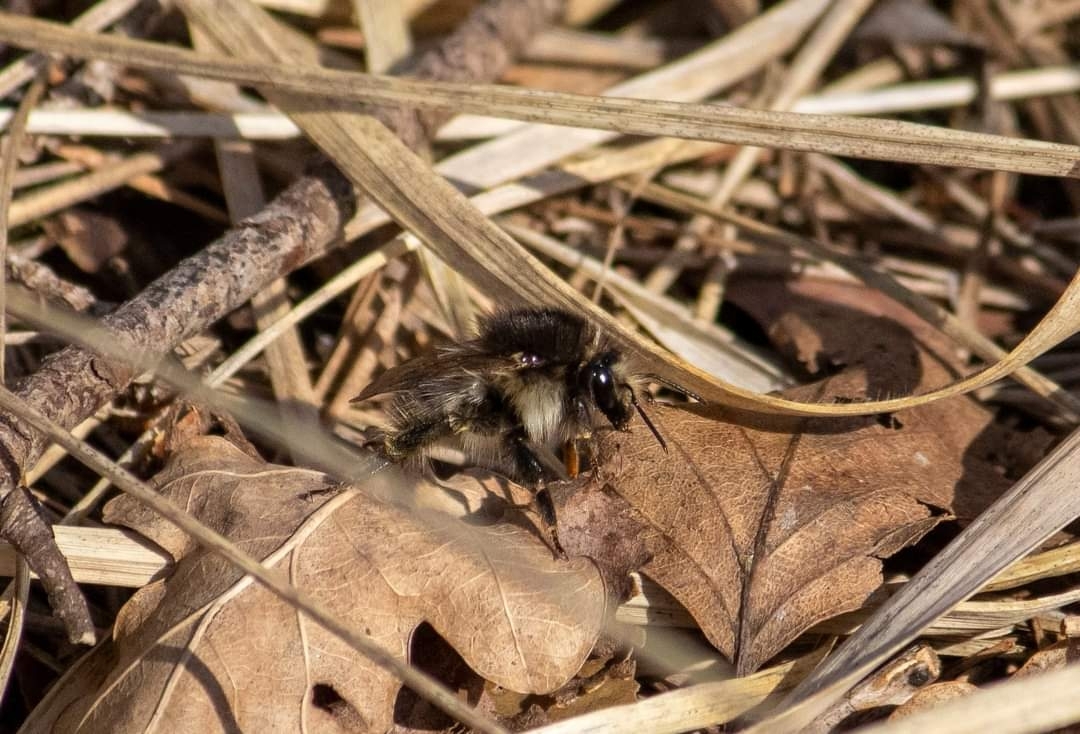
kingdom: Animalia
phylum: Arthropoda
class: Insecta
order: Hymenoptera
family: Apidae
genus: Bombus
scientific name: Bombus pascuorum
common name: Common carder bee
